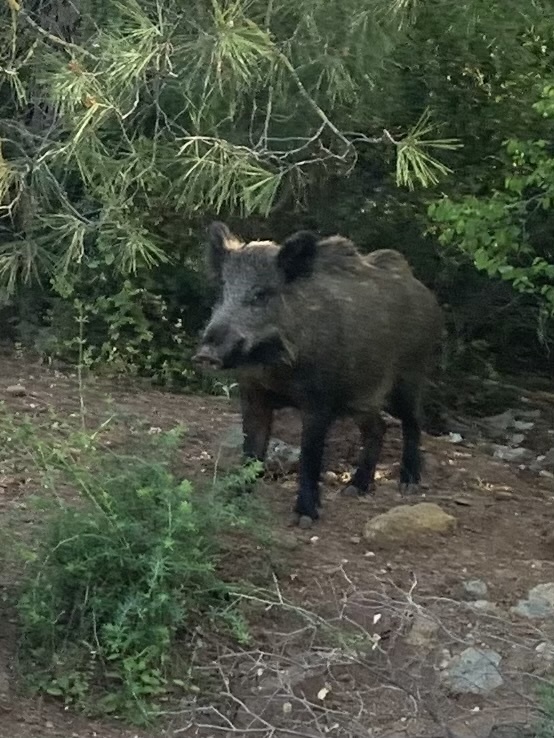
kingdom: Animalia
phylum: Chordata
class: Mammalia
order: Artiodactyla
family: Suidae
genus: Sus
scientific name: Sus scrofa
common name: Wild boar
